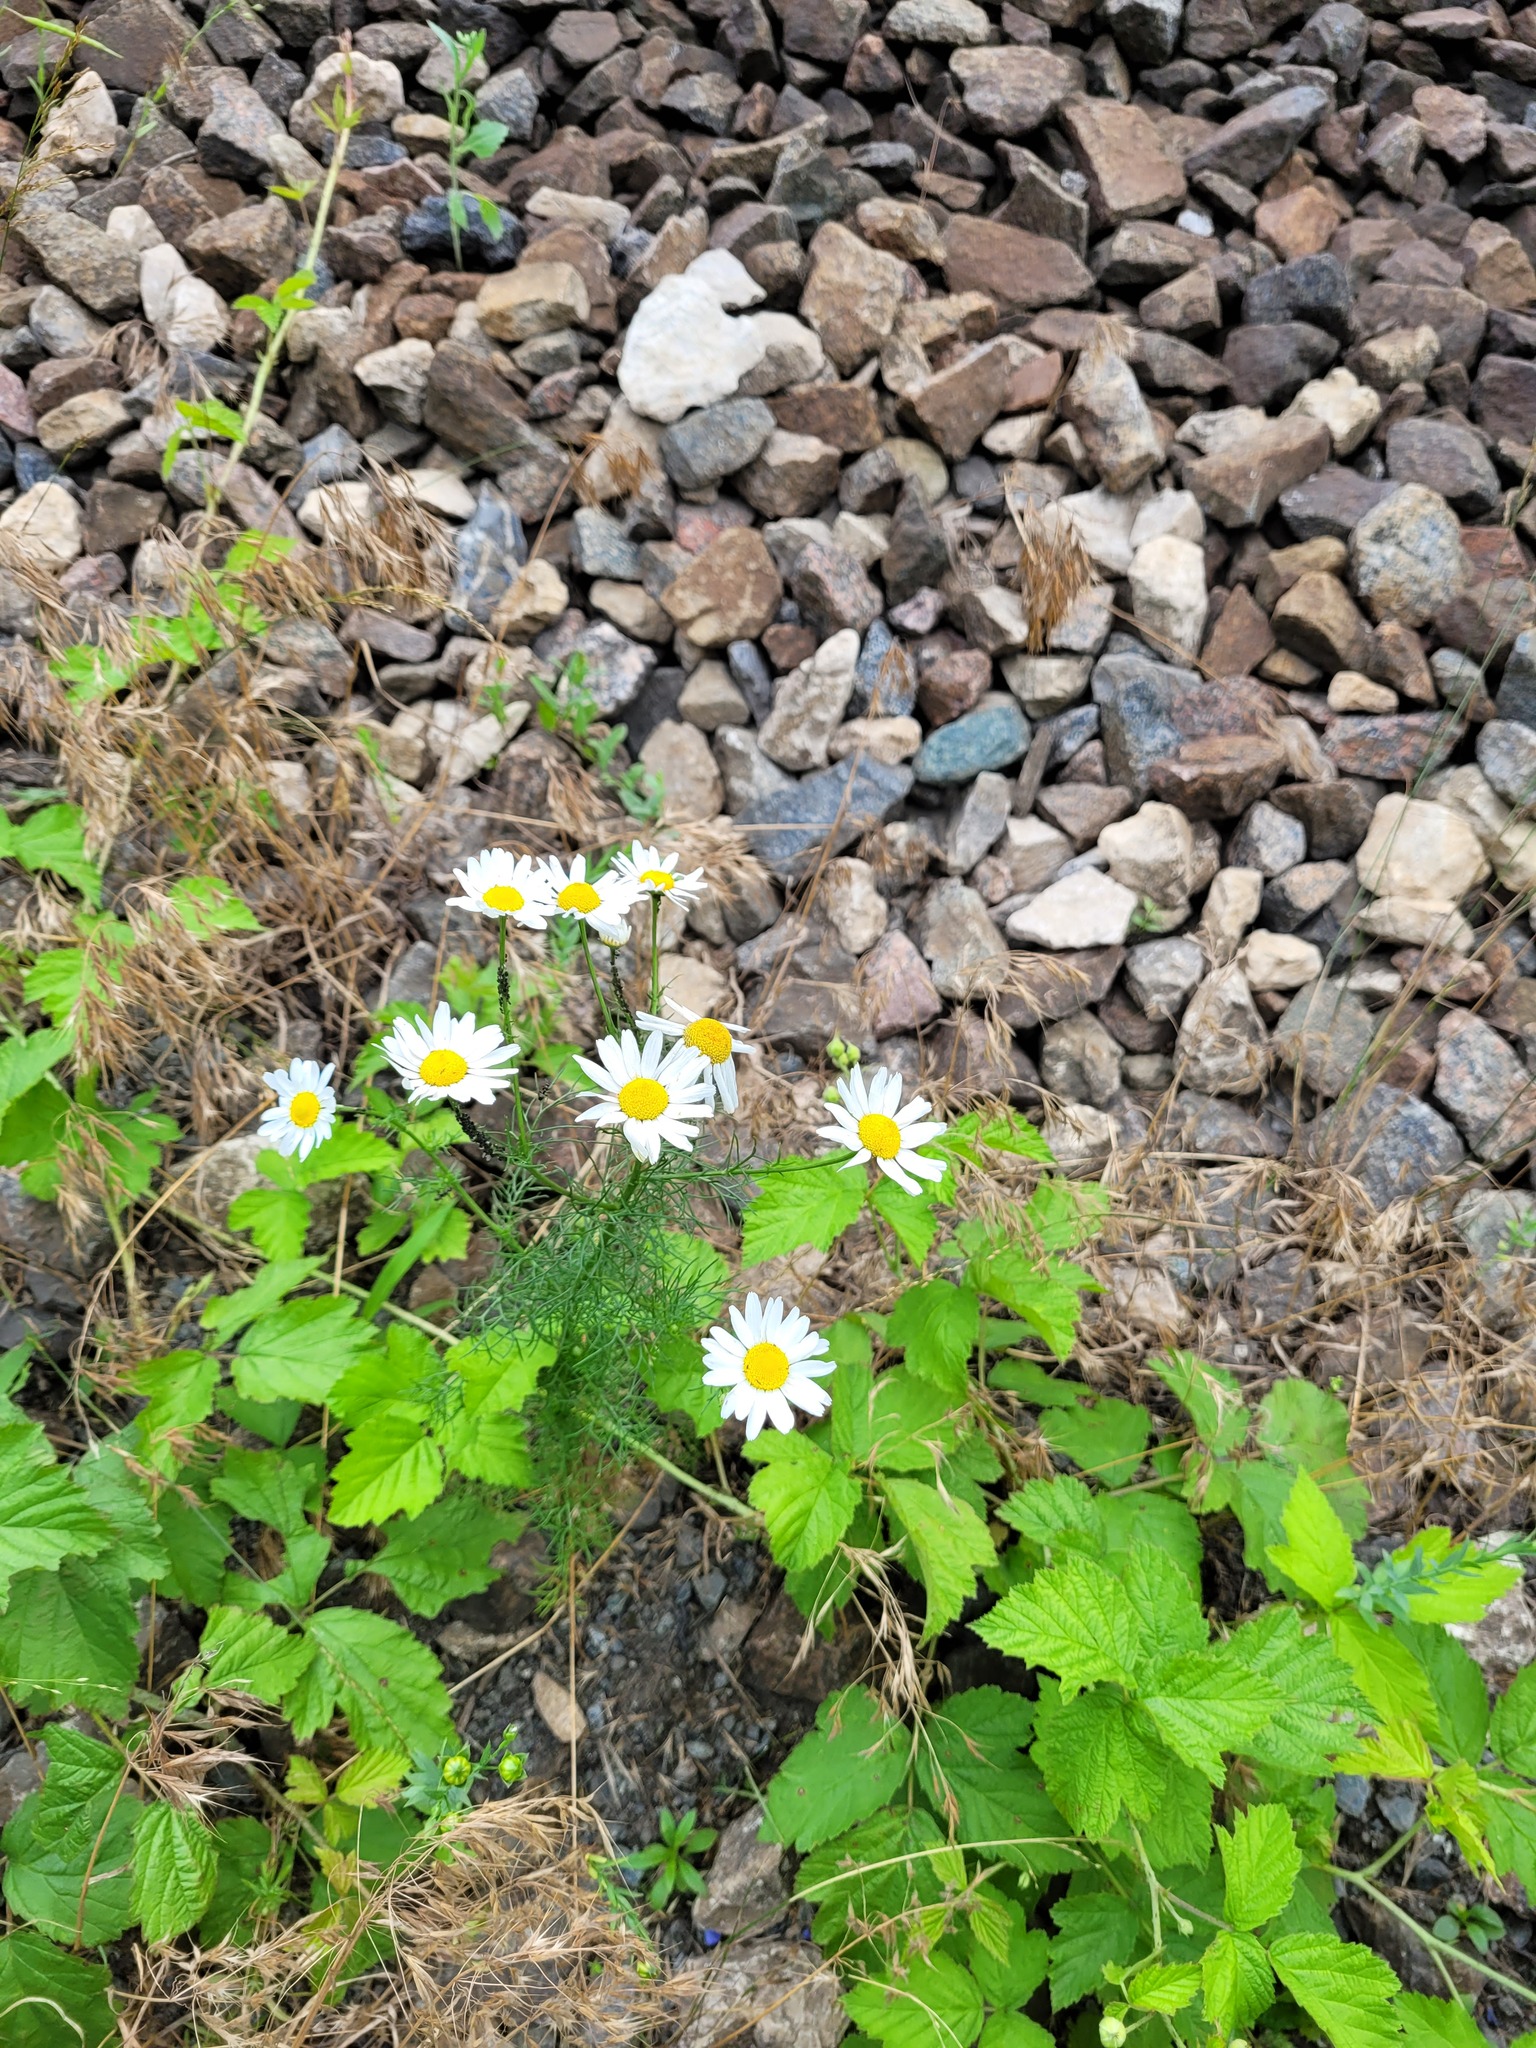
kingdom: Plantae
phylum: Tracheophyta
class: Magnoliopsida
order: Asterales
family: Asteraceae
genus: Tripleurospermum
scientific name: Tripleurospermum inodorum
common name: Scentless mayweed
